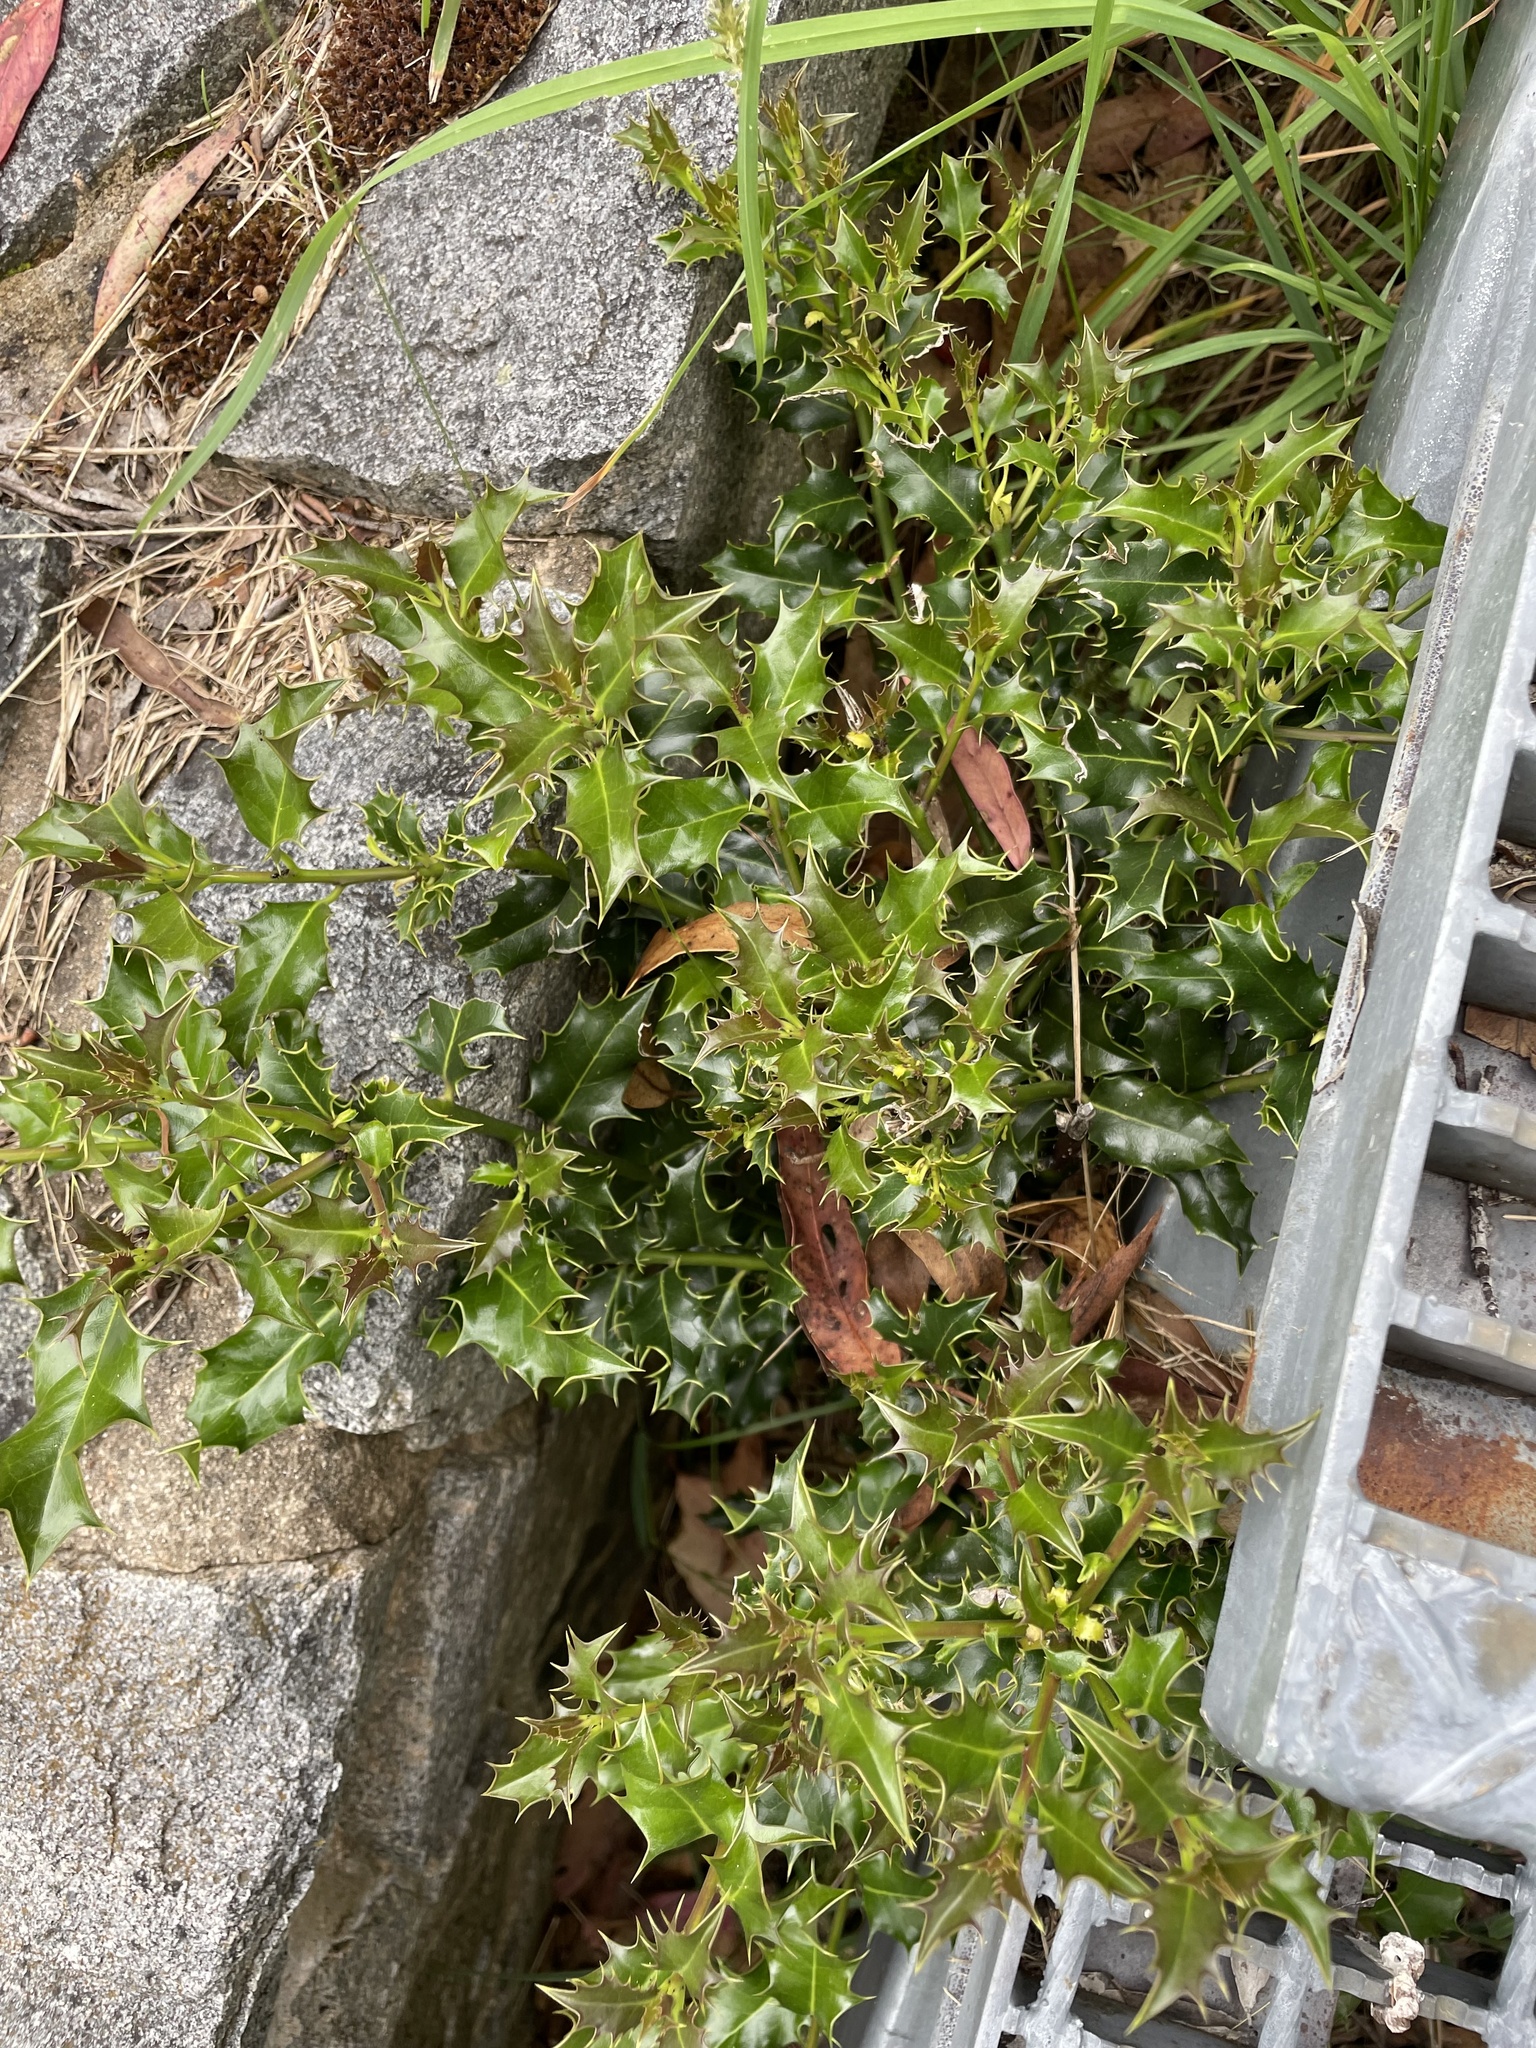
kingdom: Plantae
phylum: Tracheophyta
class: Magnoliopsida
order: Aquifoliales
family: Aquifoliaceae
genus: Ilex
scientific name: Ilex aquifolium
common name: English holly
